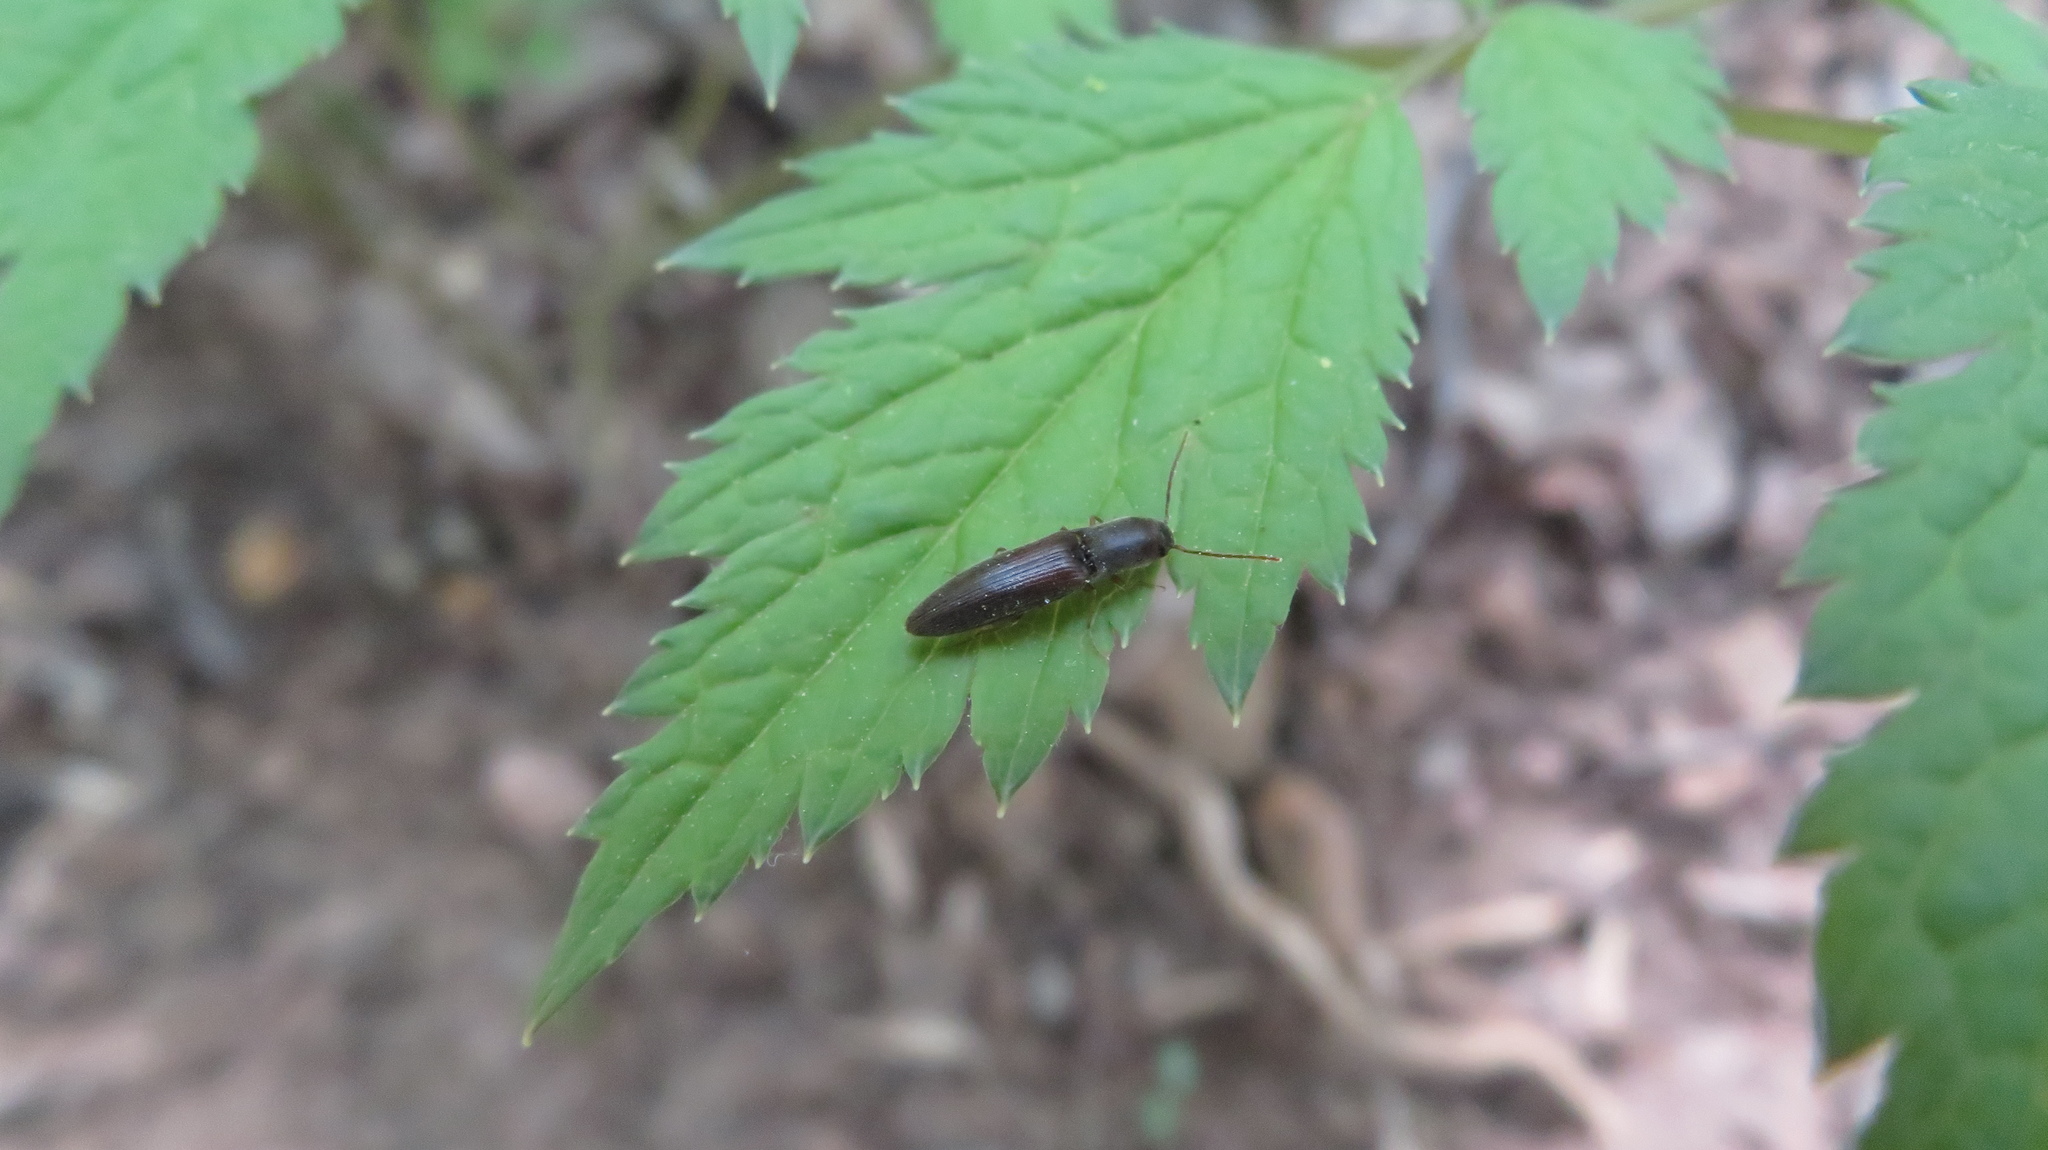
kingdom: Animalia
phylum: Arthropoda
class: Insecta
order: Coleoptera
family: Elateridae
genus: Agriotes
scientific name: Agriotes oblongicollis
